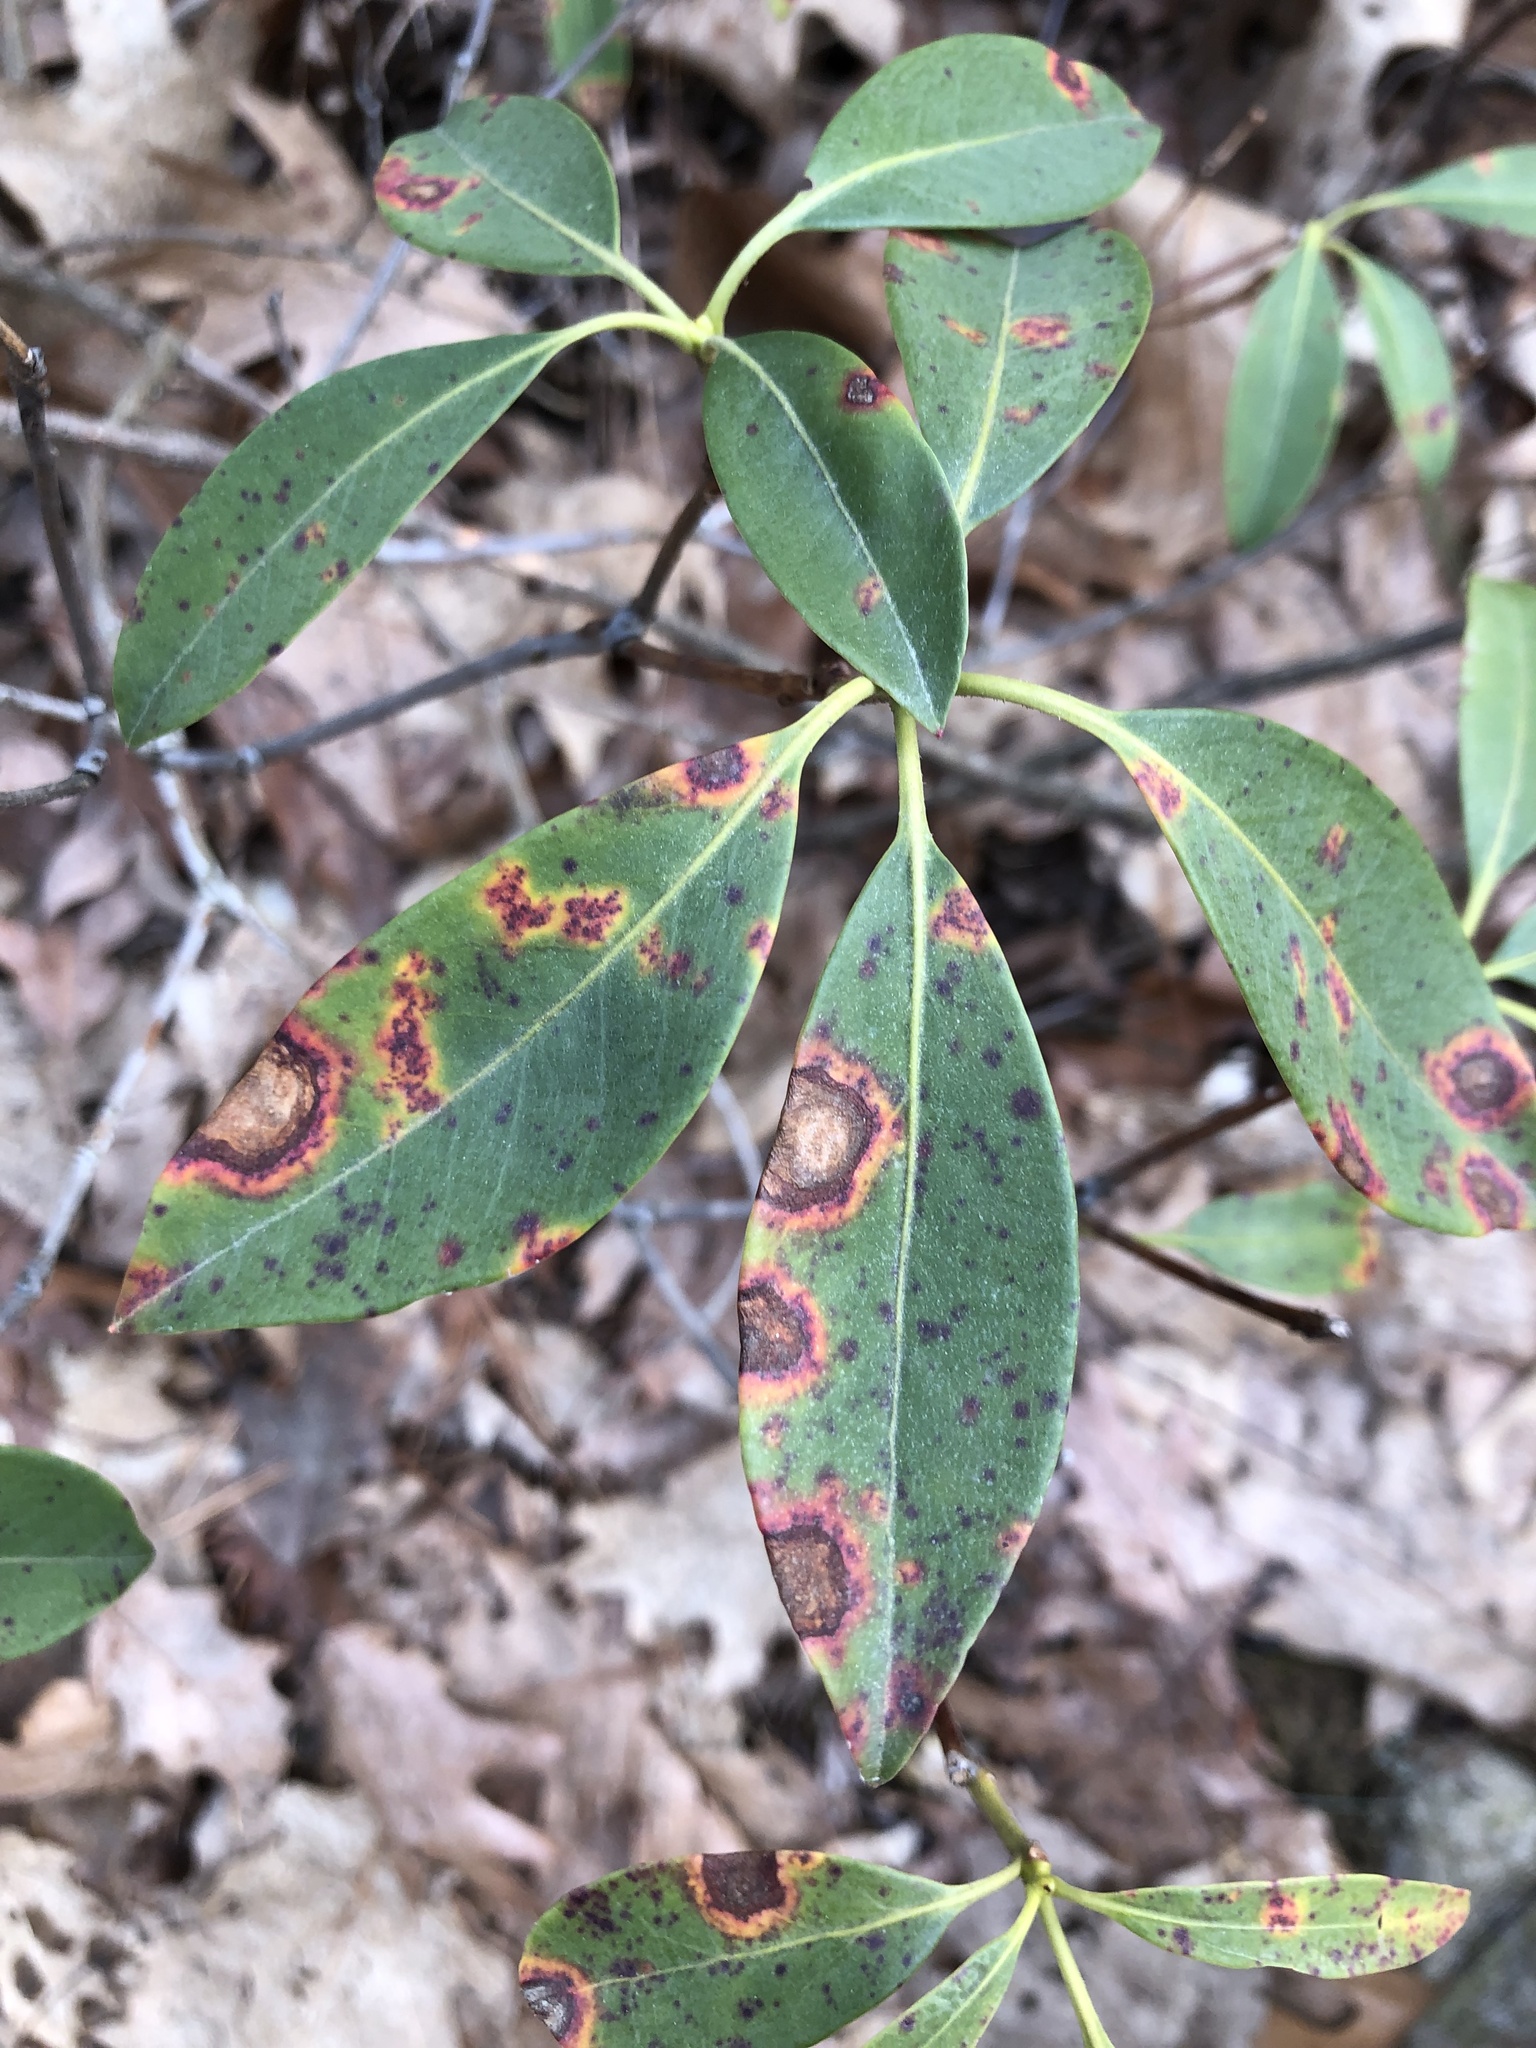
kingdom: Fungi
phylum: Ascomycota
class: Sordariomycetes
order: Diaporthales
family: Diaporthaceae
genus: Diaporthe
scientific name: Diaporthe kalmiae
